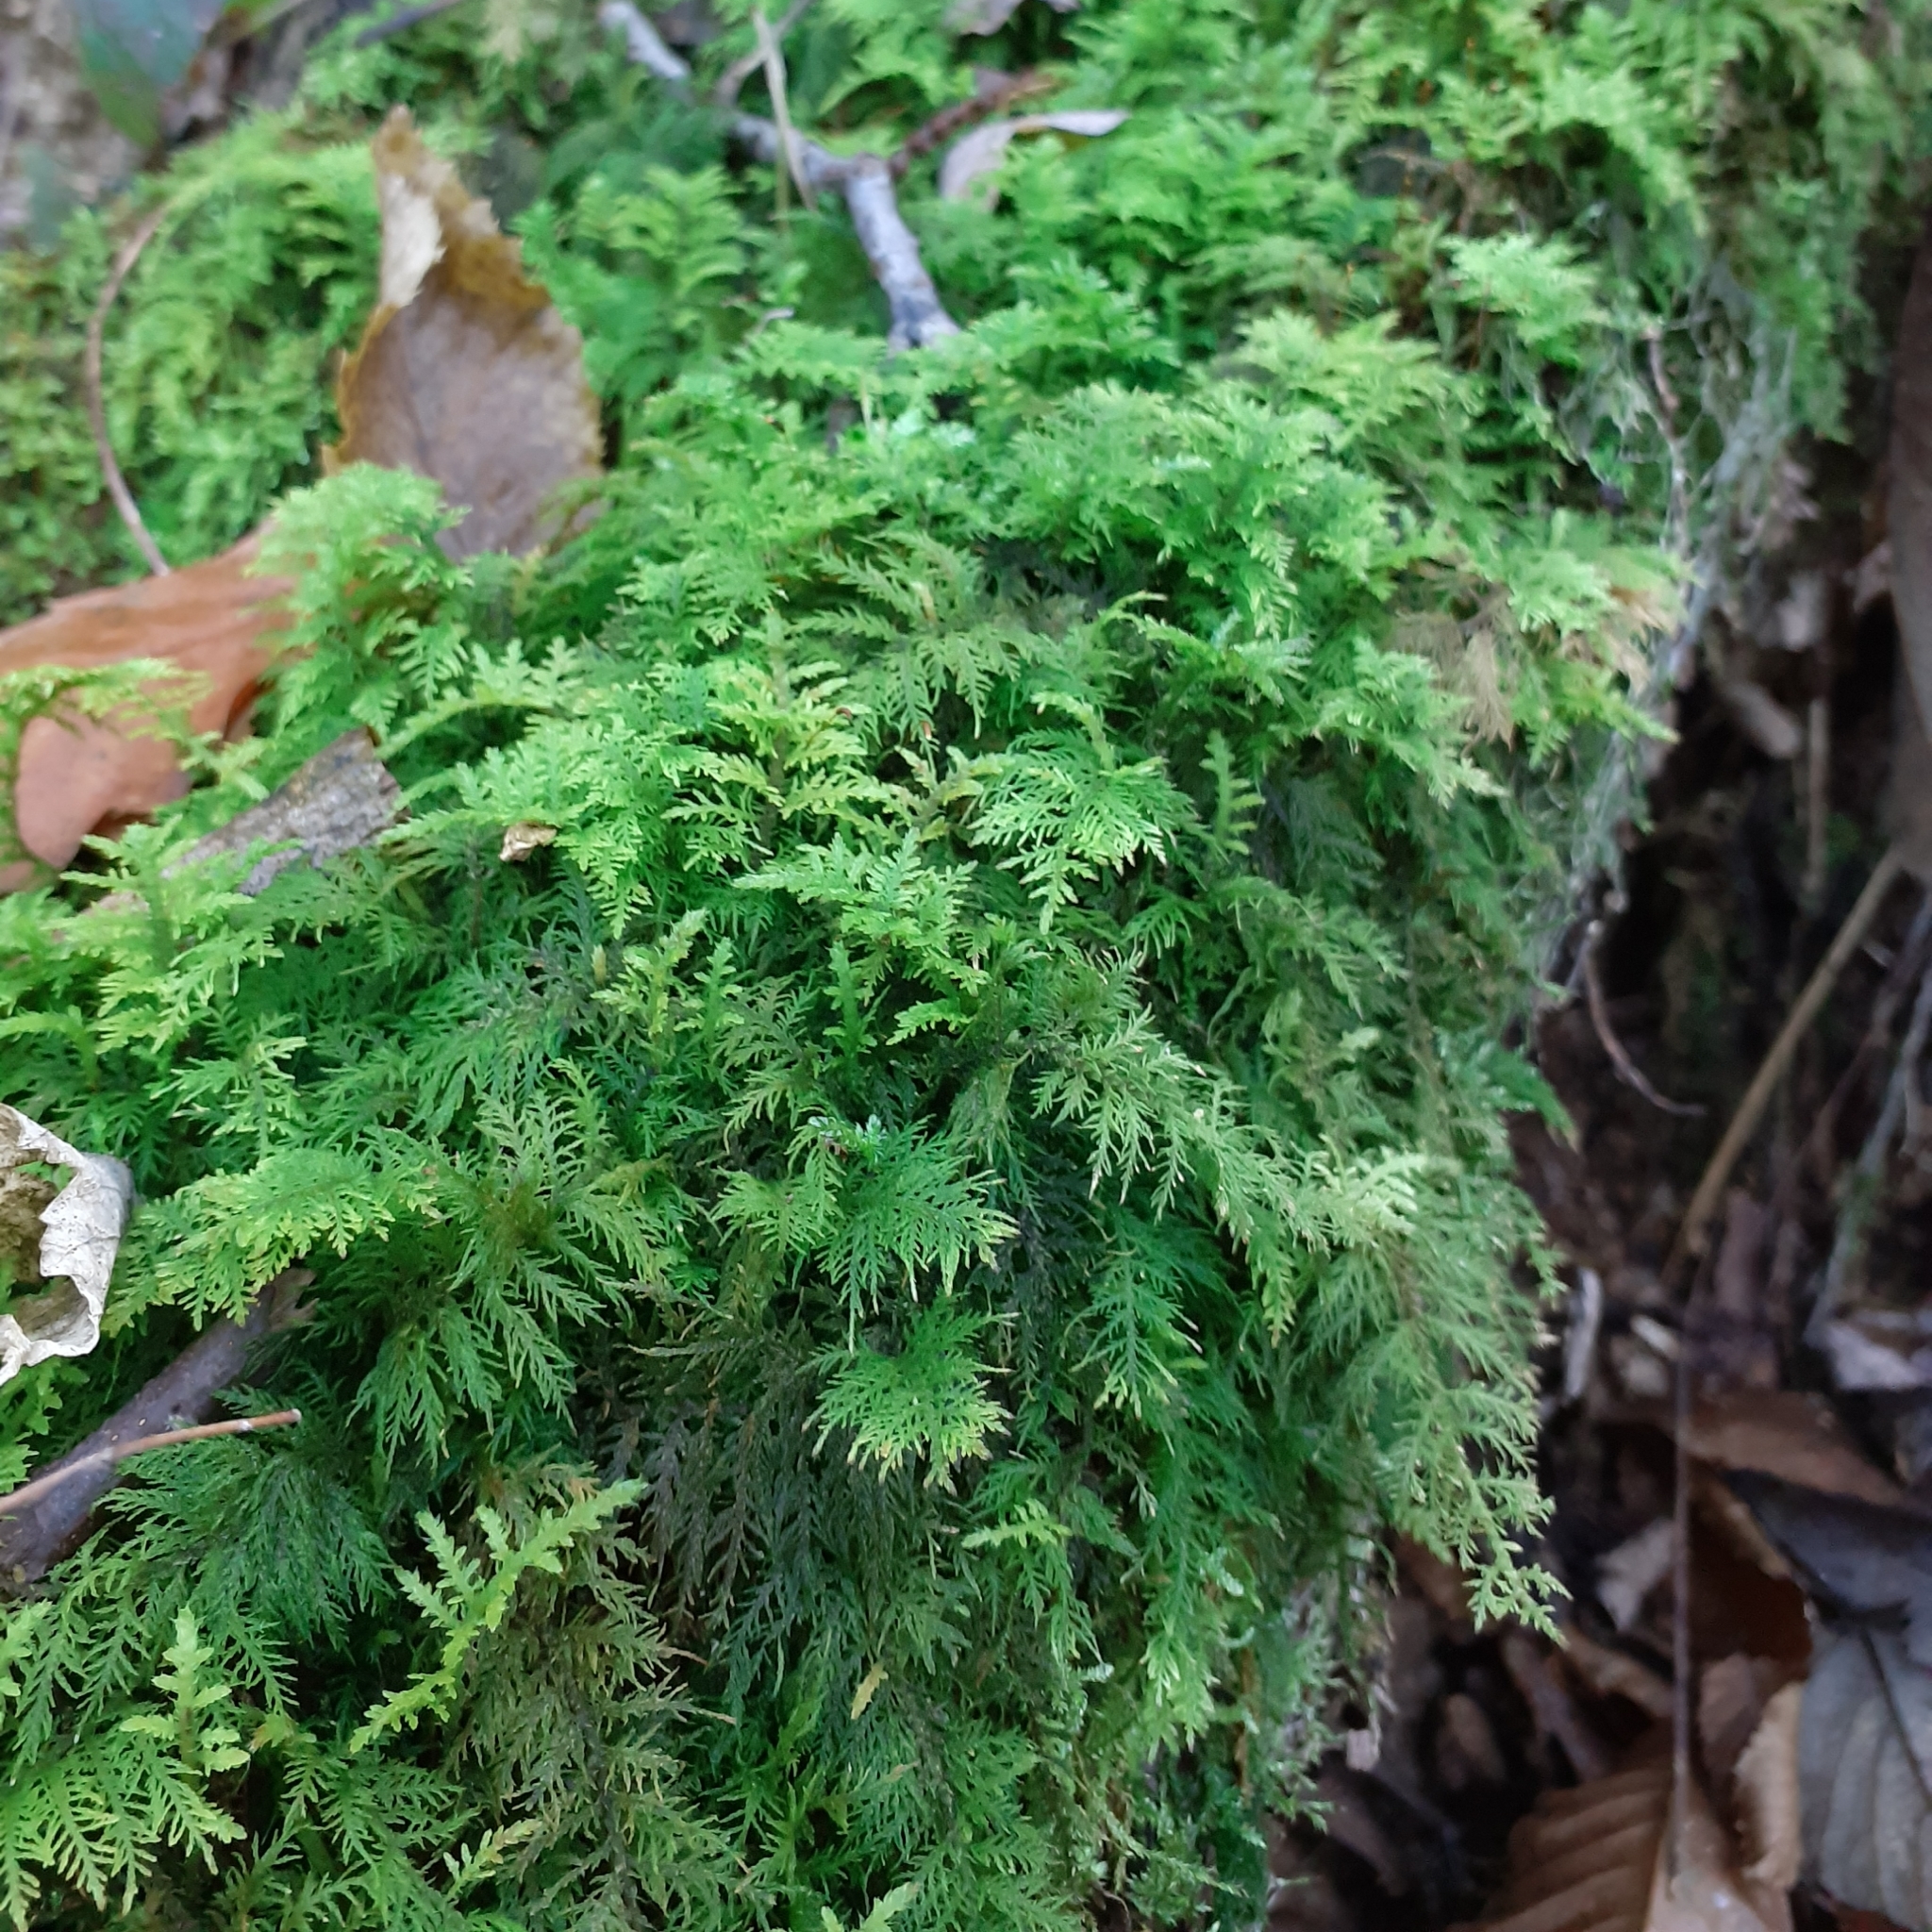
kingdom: Plantae
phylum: Bryophyta
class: Bryopsida
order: Hypnales
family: Thuidiaceae
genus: Thuidium
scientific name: Thuidium tamariscinum
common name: Common tamarisk-moss
